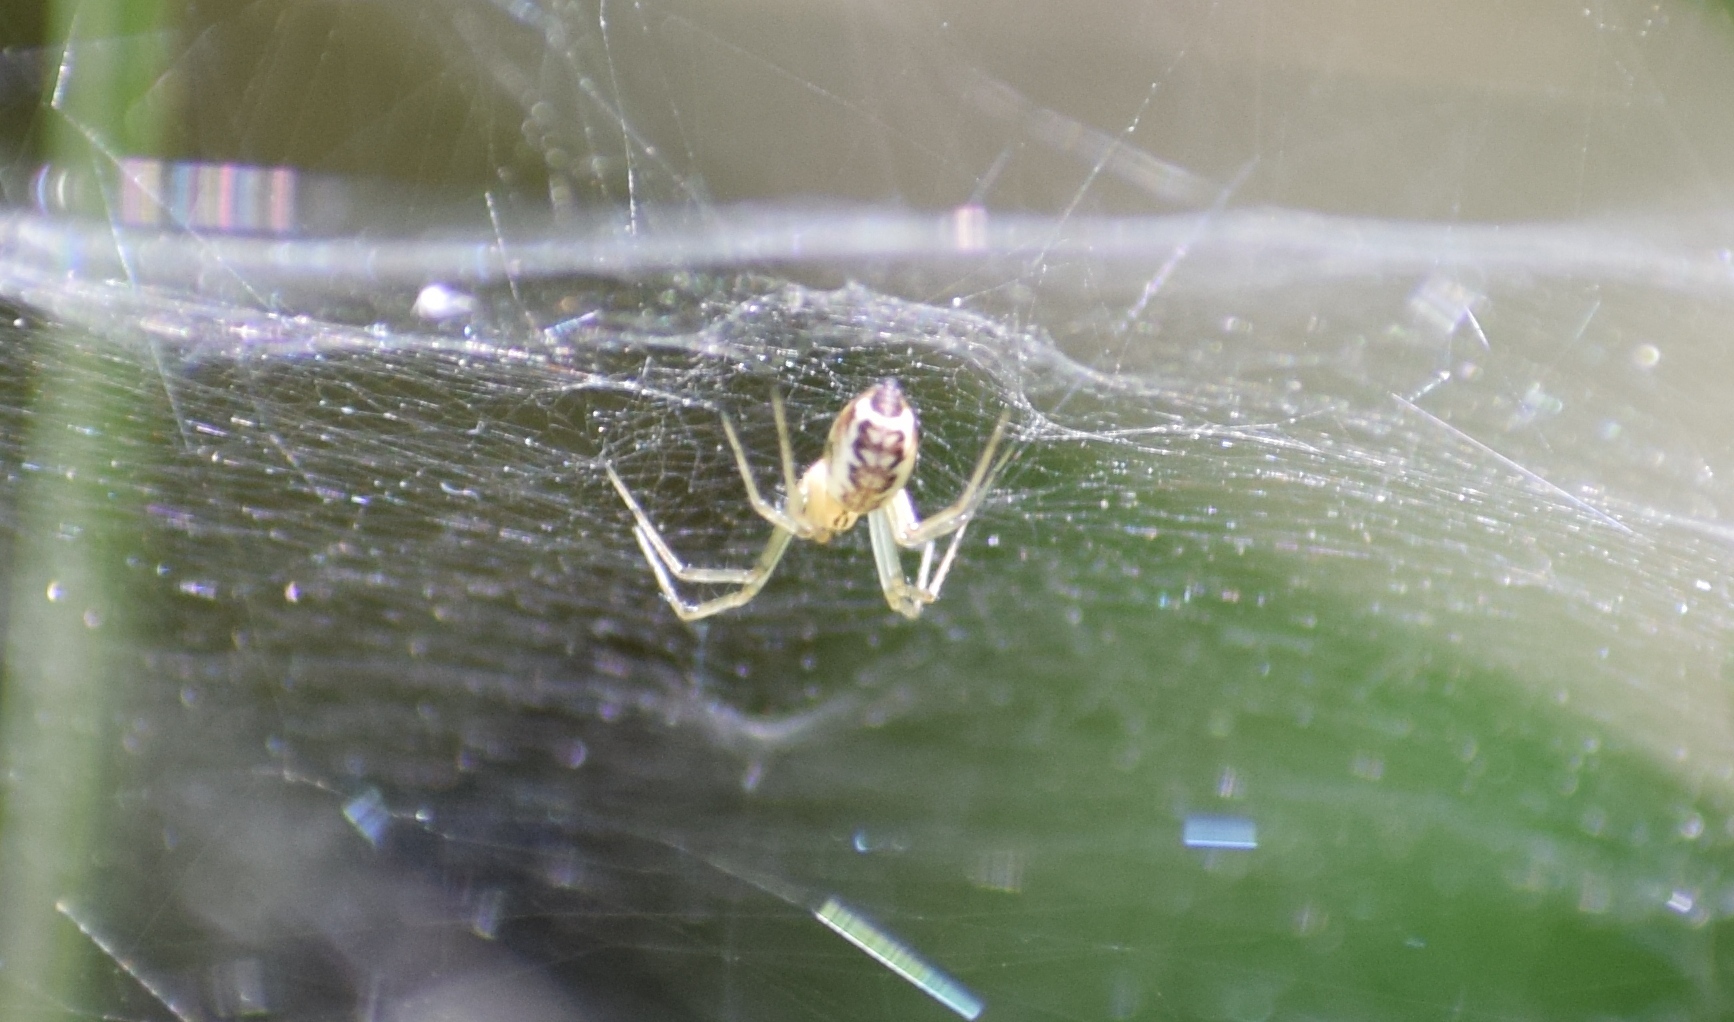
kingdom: Animalia
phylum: Arthropoda
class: Arachnida
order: Araneae
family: Linyphiidae
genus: Linyphia
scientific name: Linyphia triangularis
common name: Money spider
